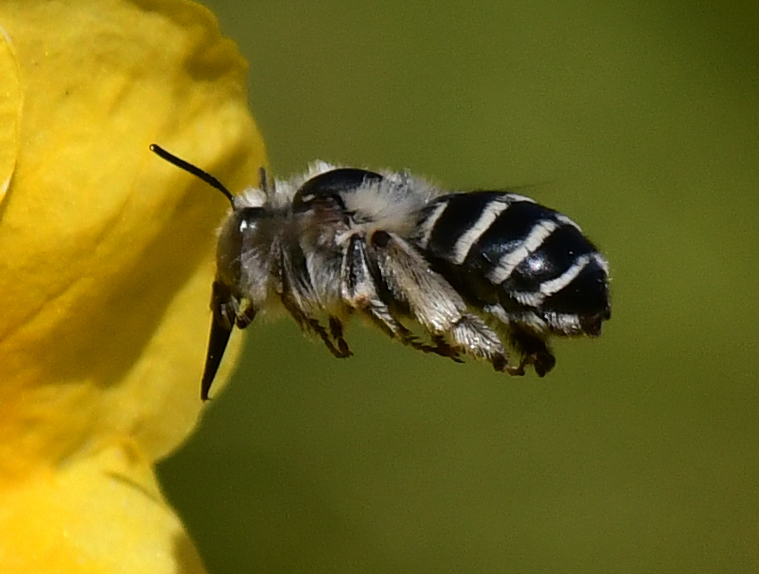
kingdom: Animalia
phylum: Arthropoda
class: Insecta
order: Hymenoptera
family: Apidae
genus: Anthophora
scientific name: Anthophora urbana
